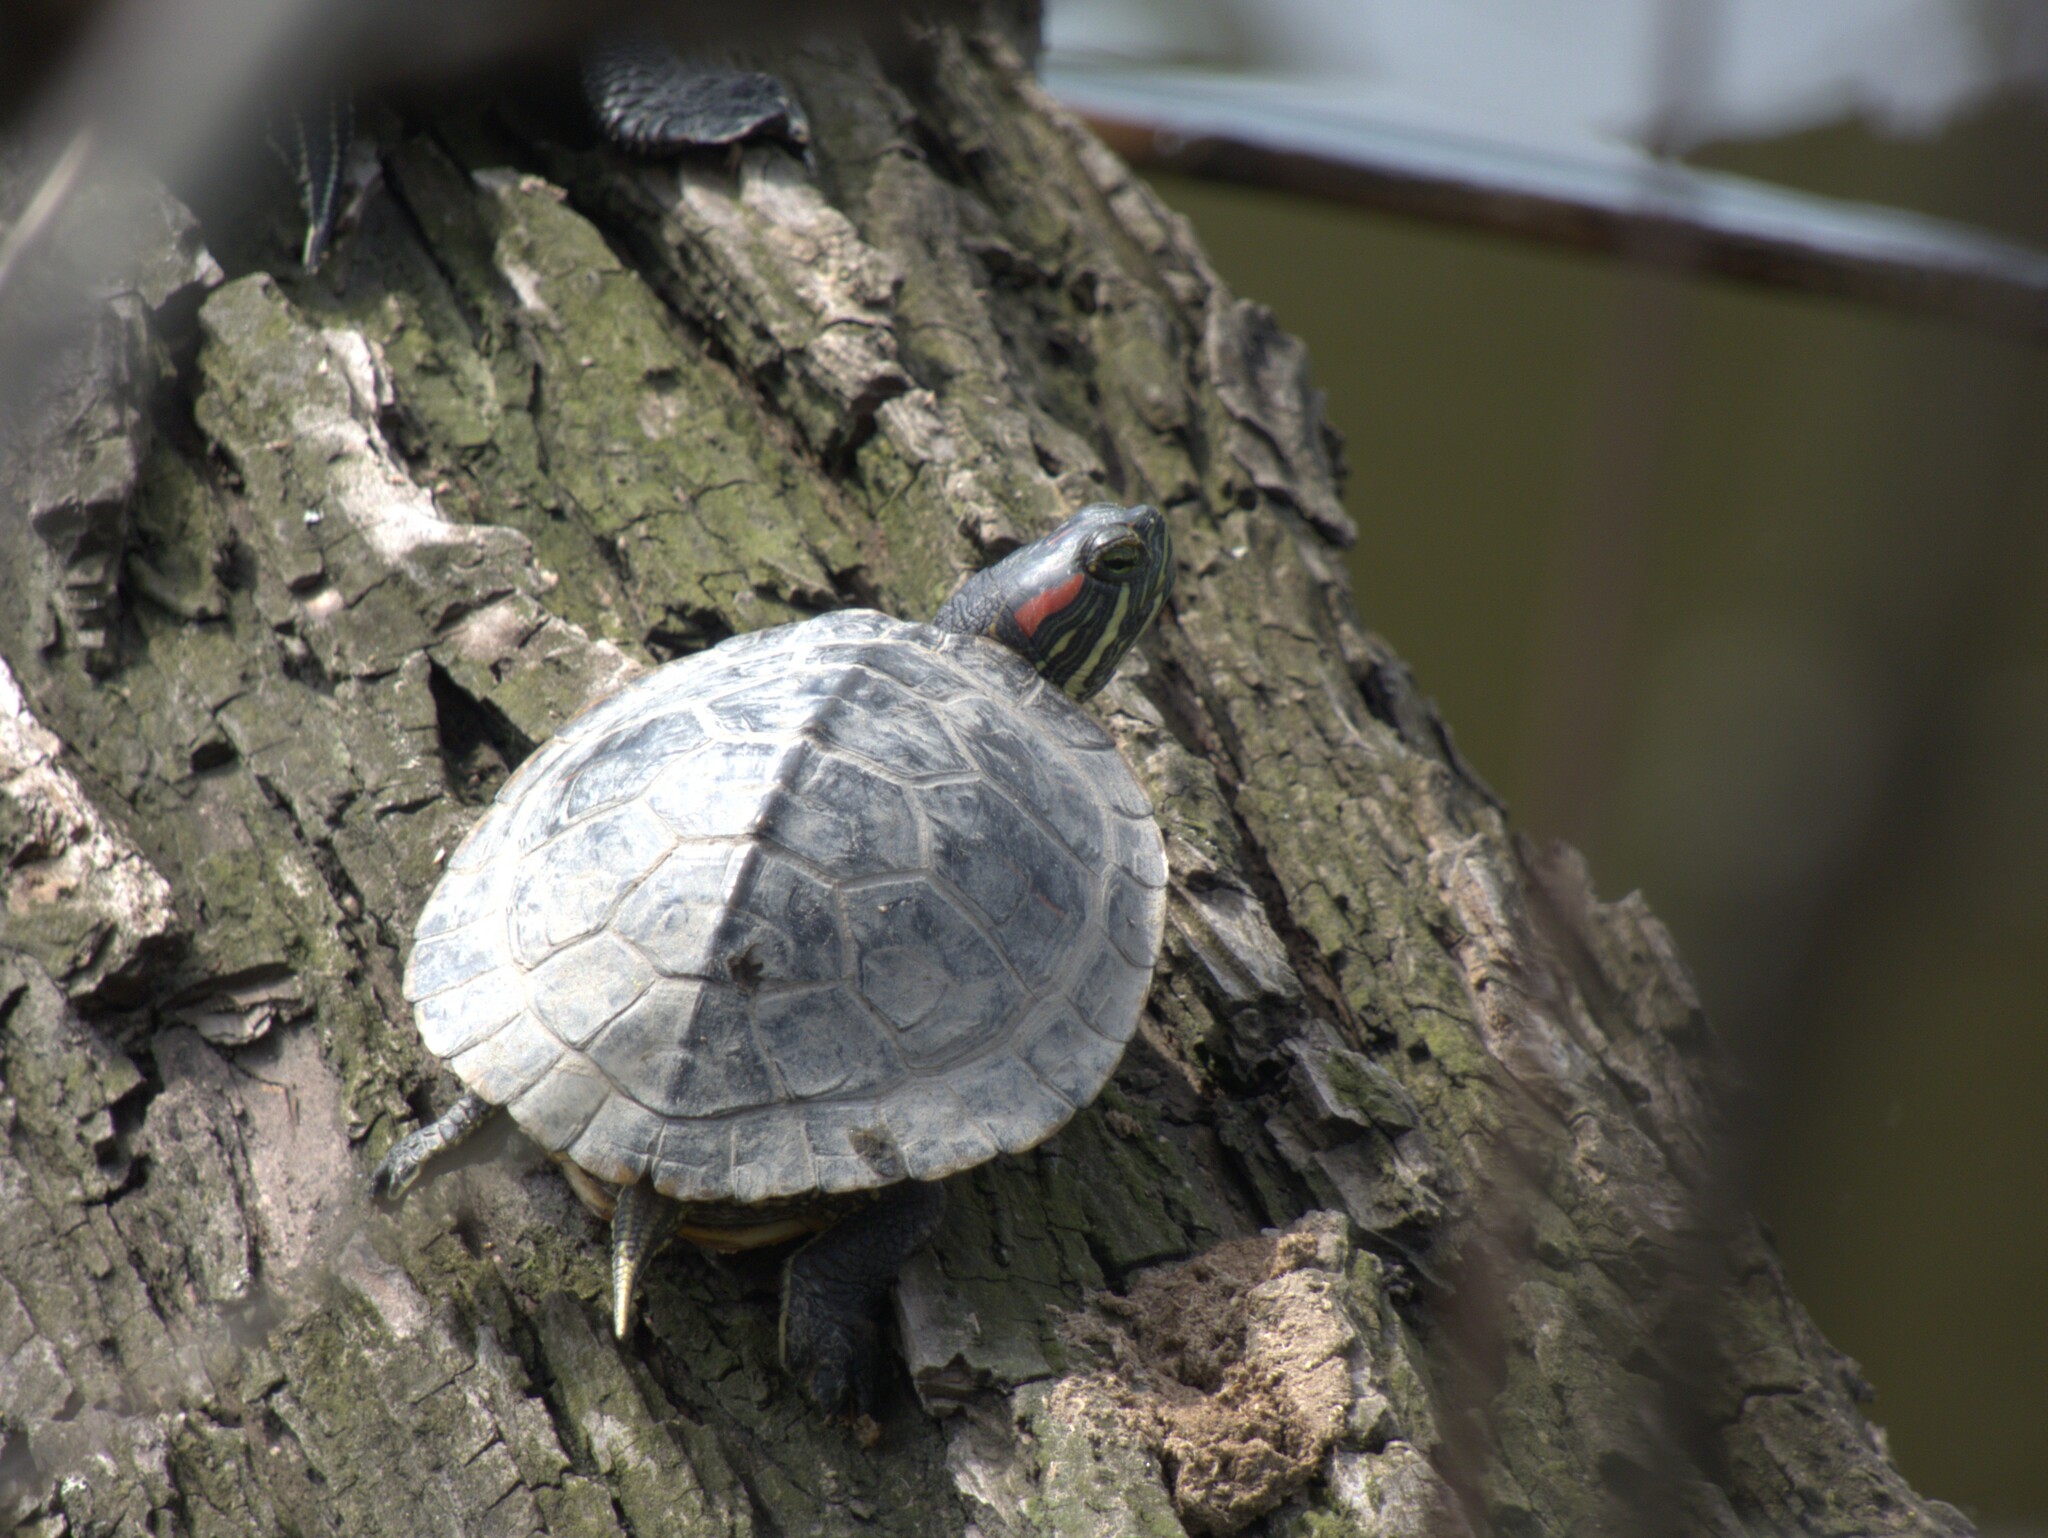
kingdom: Animalia
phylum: Chordata
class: Testudines
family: Emydidae
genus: Trachemys
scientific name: Trachemys scripta
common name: Slider
